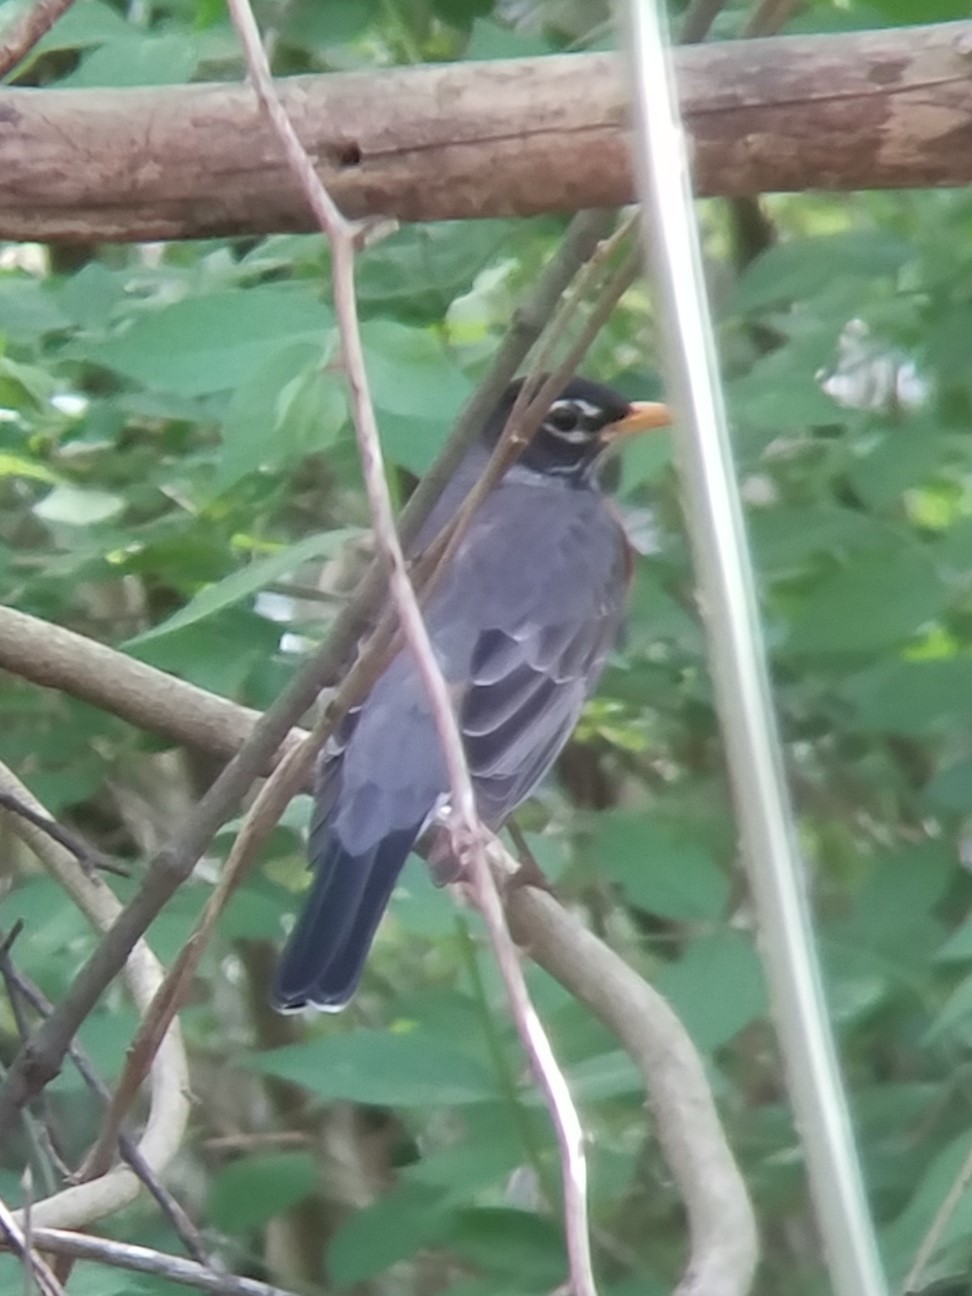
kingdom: Animalia
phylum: Chordata
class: Aves
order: Passeriformes
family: Turdidae
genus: Turdus
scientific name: Turdus migratorius
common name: American robin
